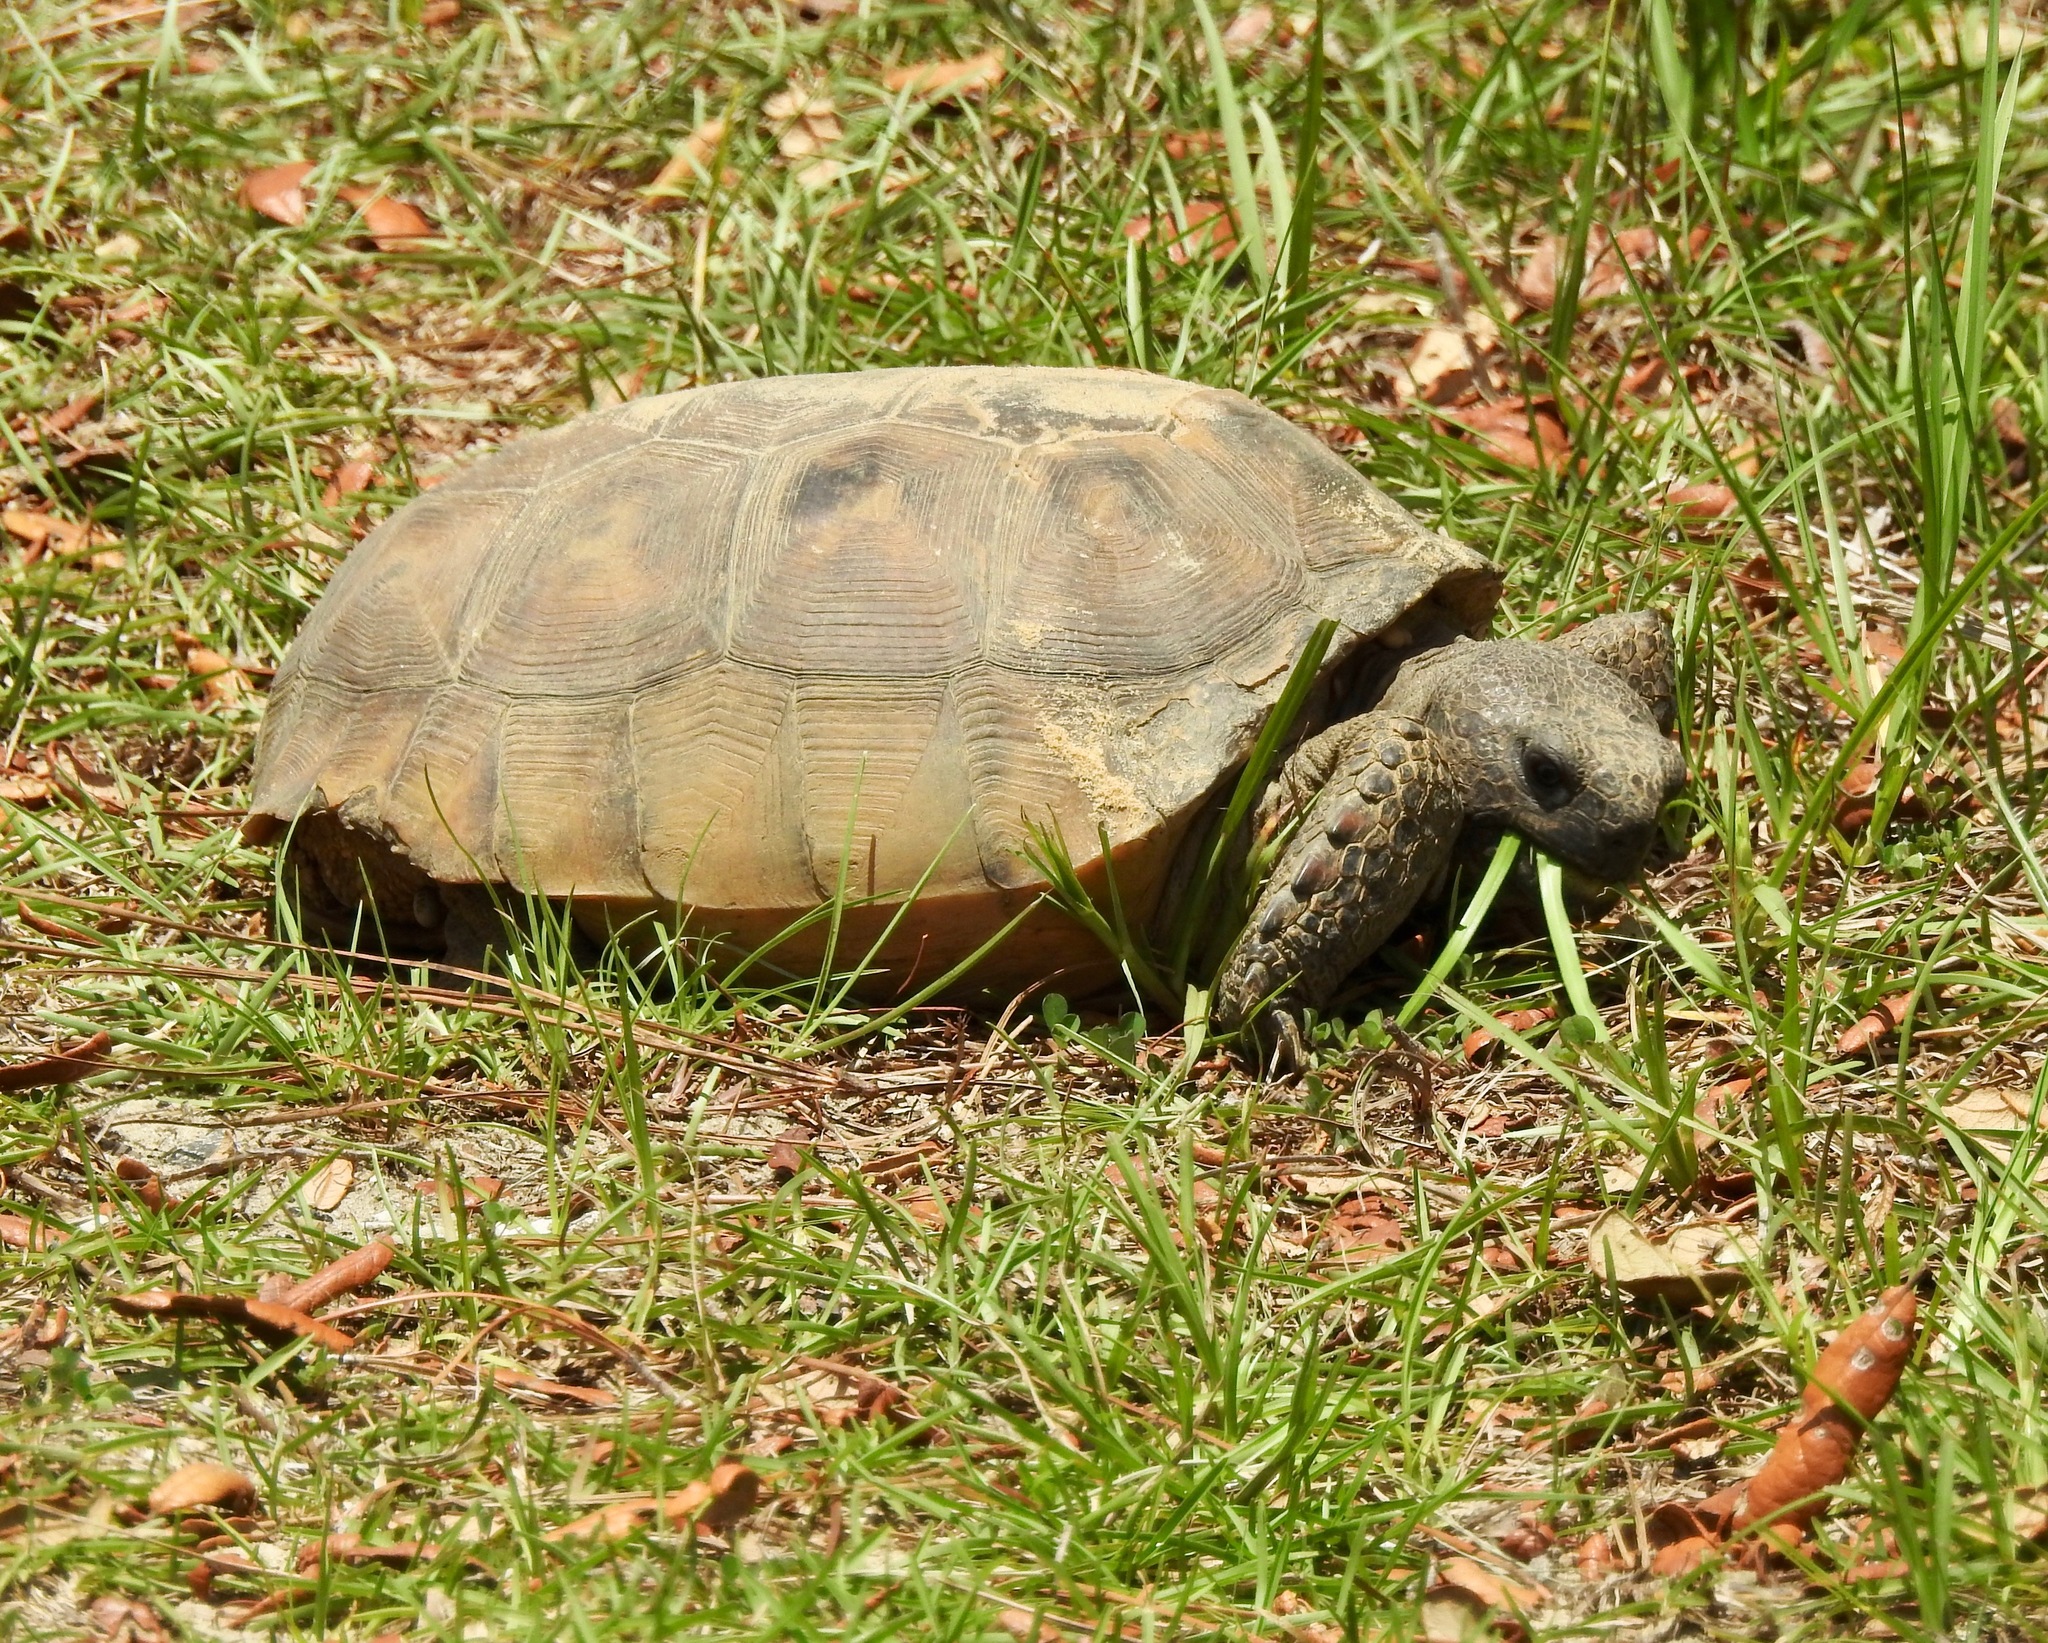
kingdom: Animalia
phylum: Chordata
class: Testudines
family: Testudinidae
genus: Gopherus
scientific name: Gopherus polyphemus
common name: Florida gopher tortoise
